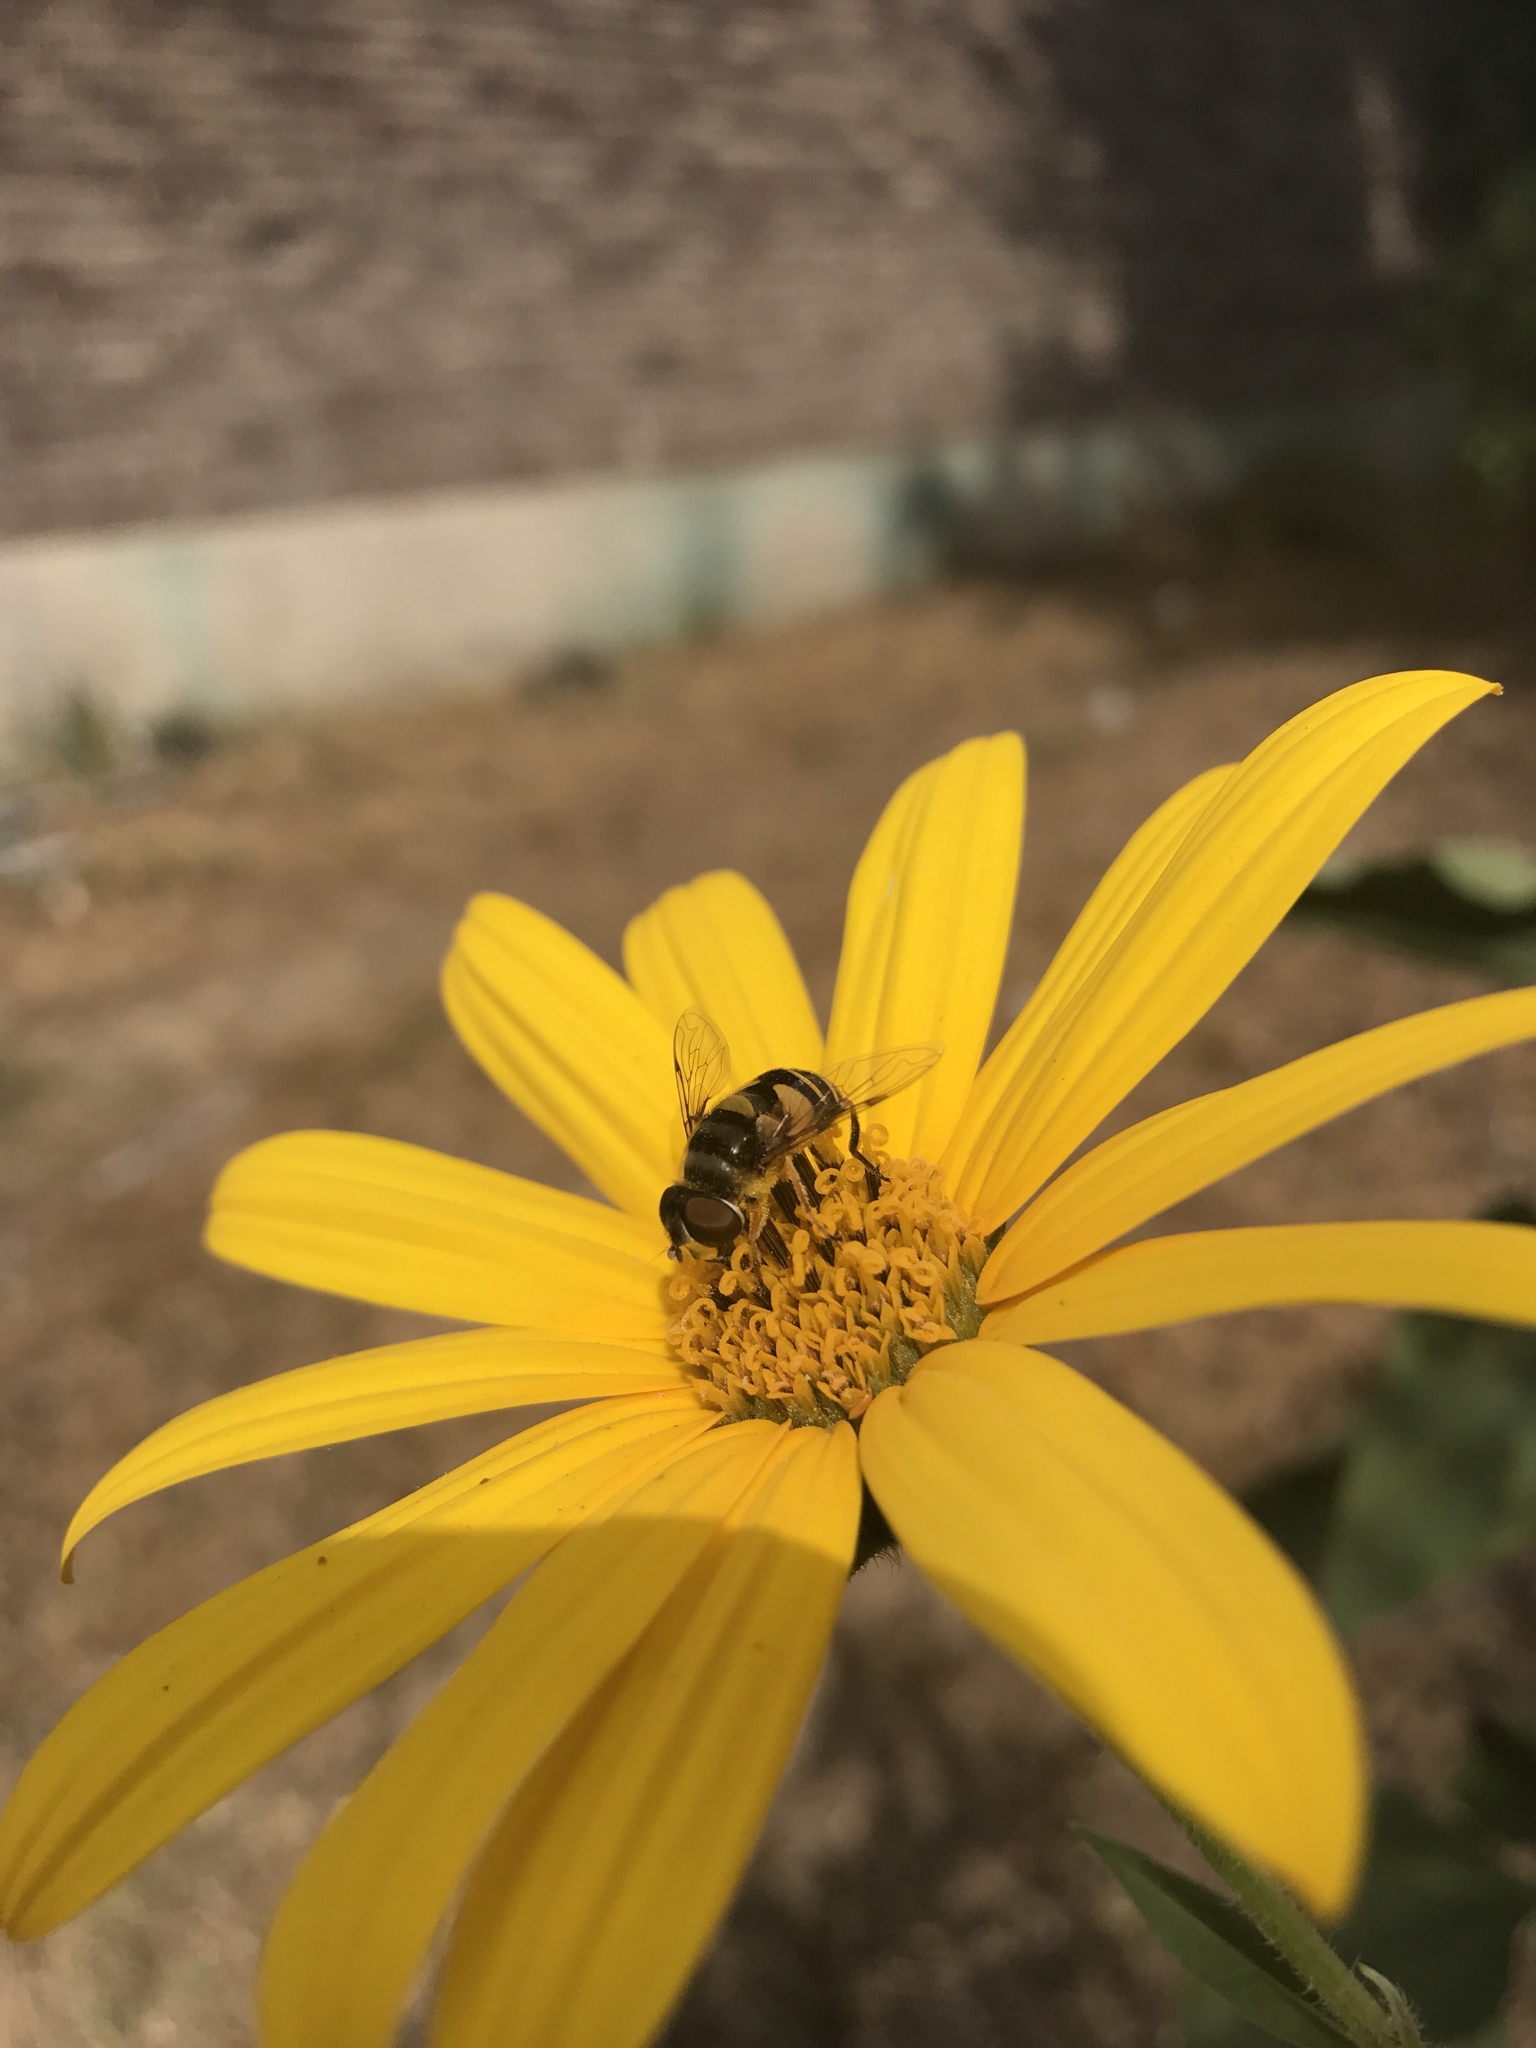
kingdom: Animalia
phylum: Arthropoda
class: Insecta
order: Diptera
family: Syrphidae
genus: Eristalis
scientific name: Eristalis transversa
